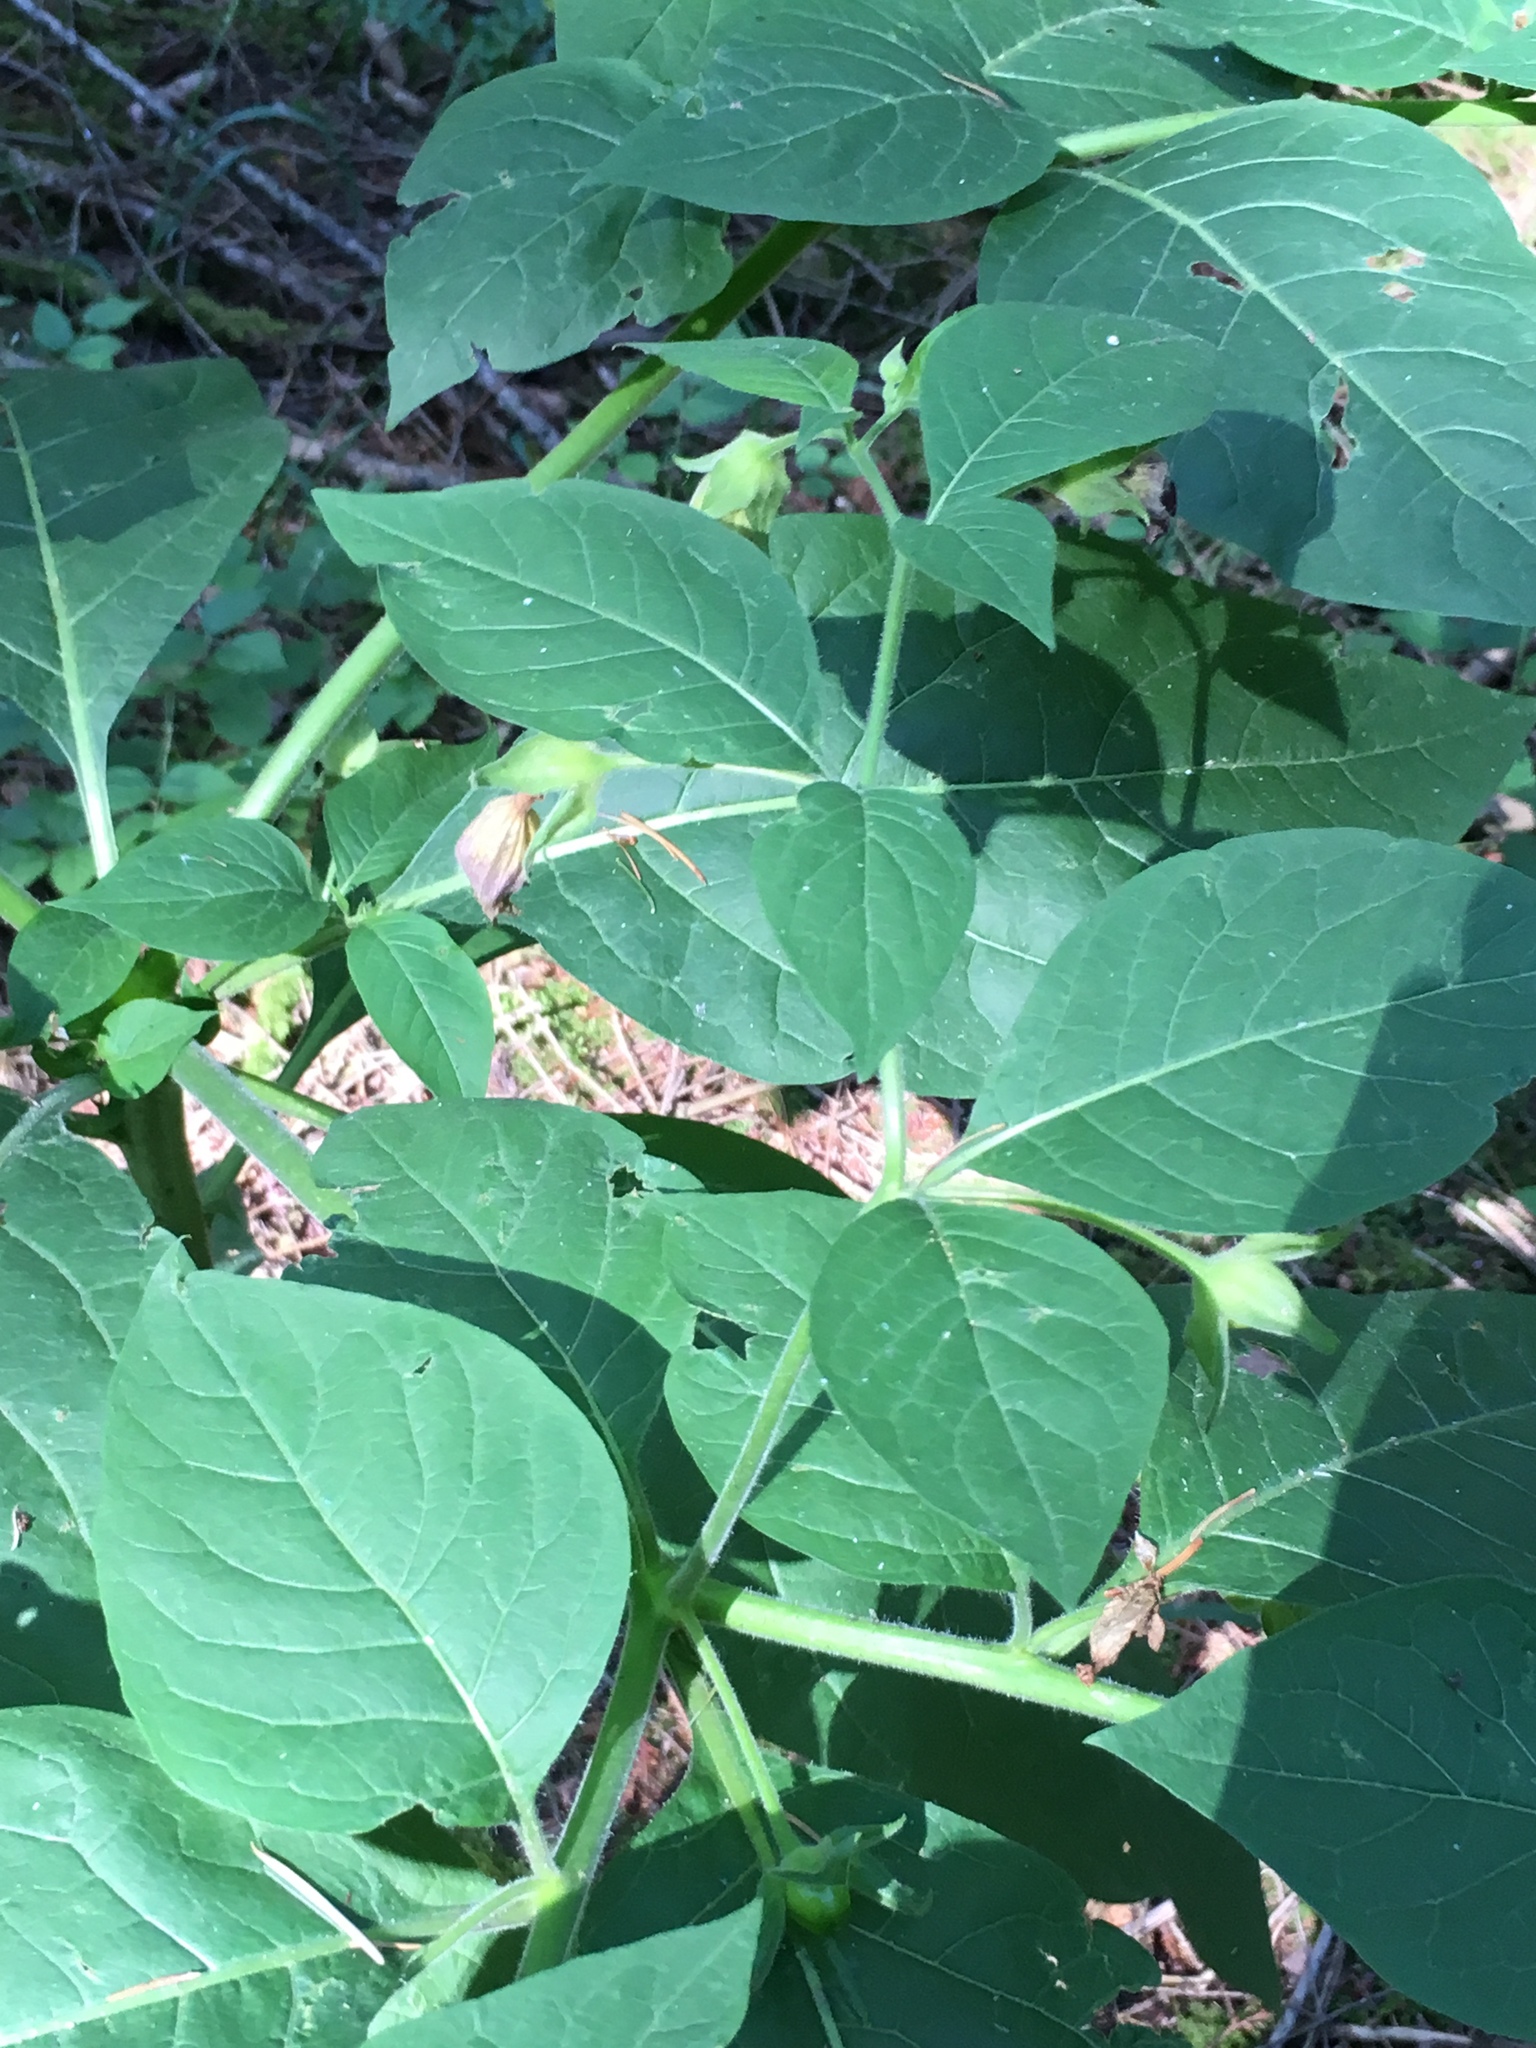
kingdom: Plantae
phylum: Tracheophyta
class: Magnoliopsida
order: Solanales
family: Solanaceae
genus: Atropa
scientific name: Atropa belladonna
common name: Deadly nightshade
